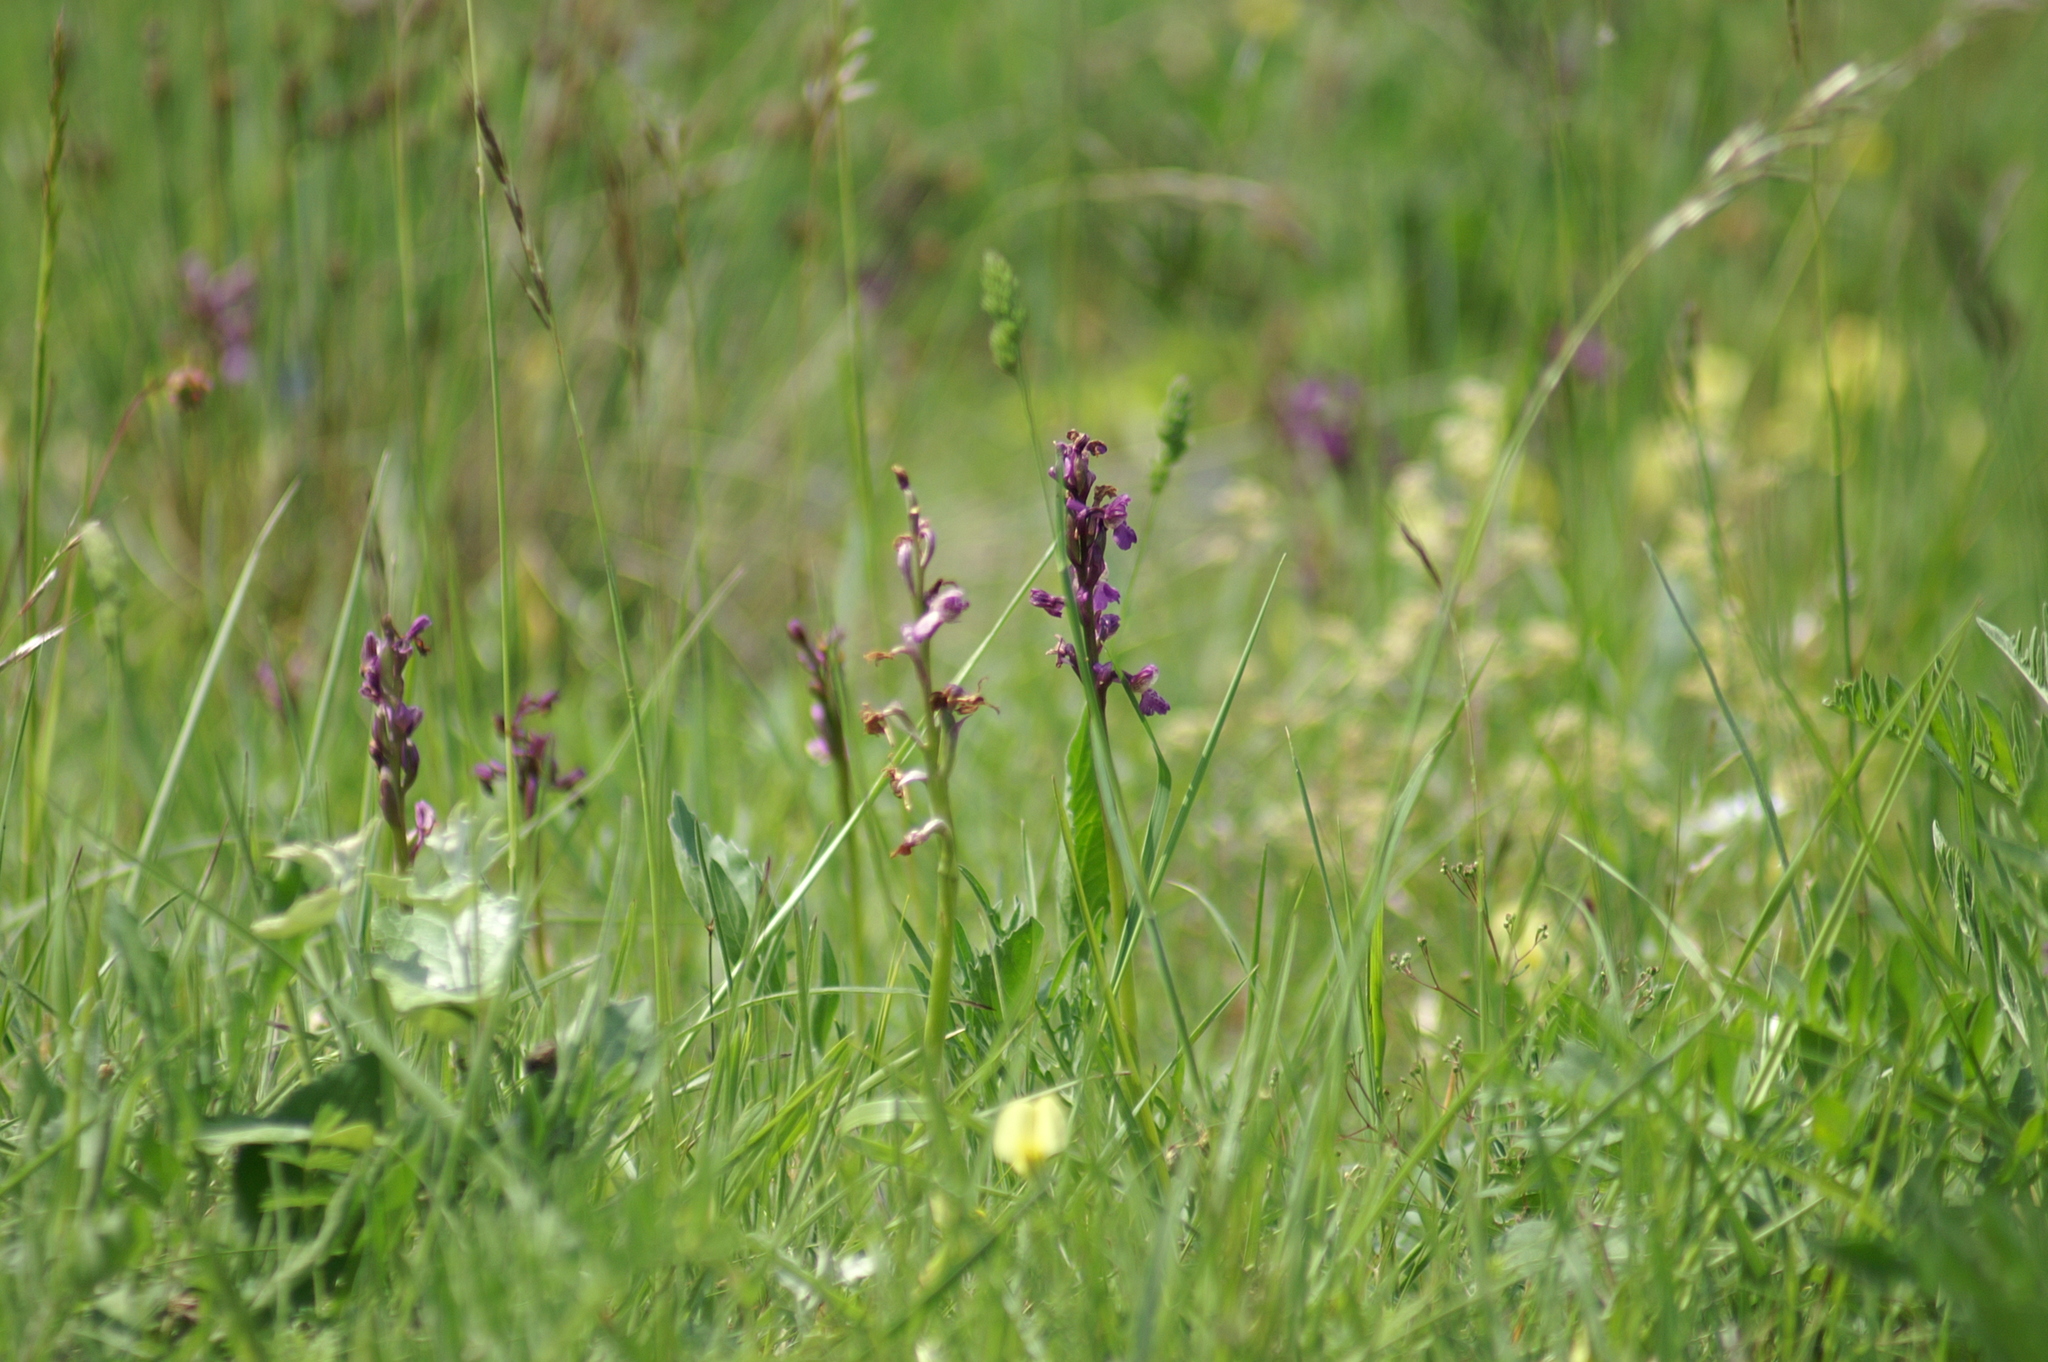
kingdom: Plantae
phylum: Tracheophyta
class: Liliopsida
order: Asparagales
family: Orchidaceae
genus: Anacamptis
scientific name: Anacamptis morio
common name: Green-winged orchid
